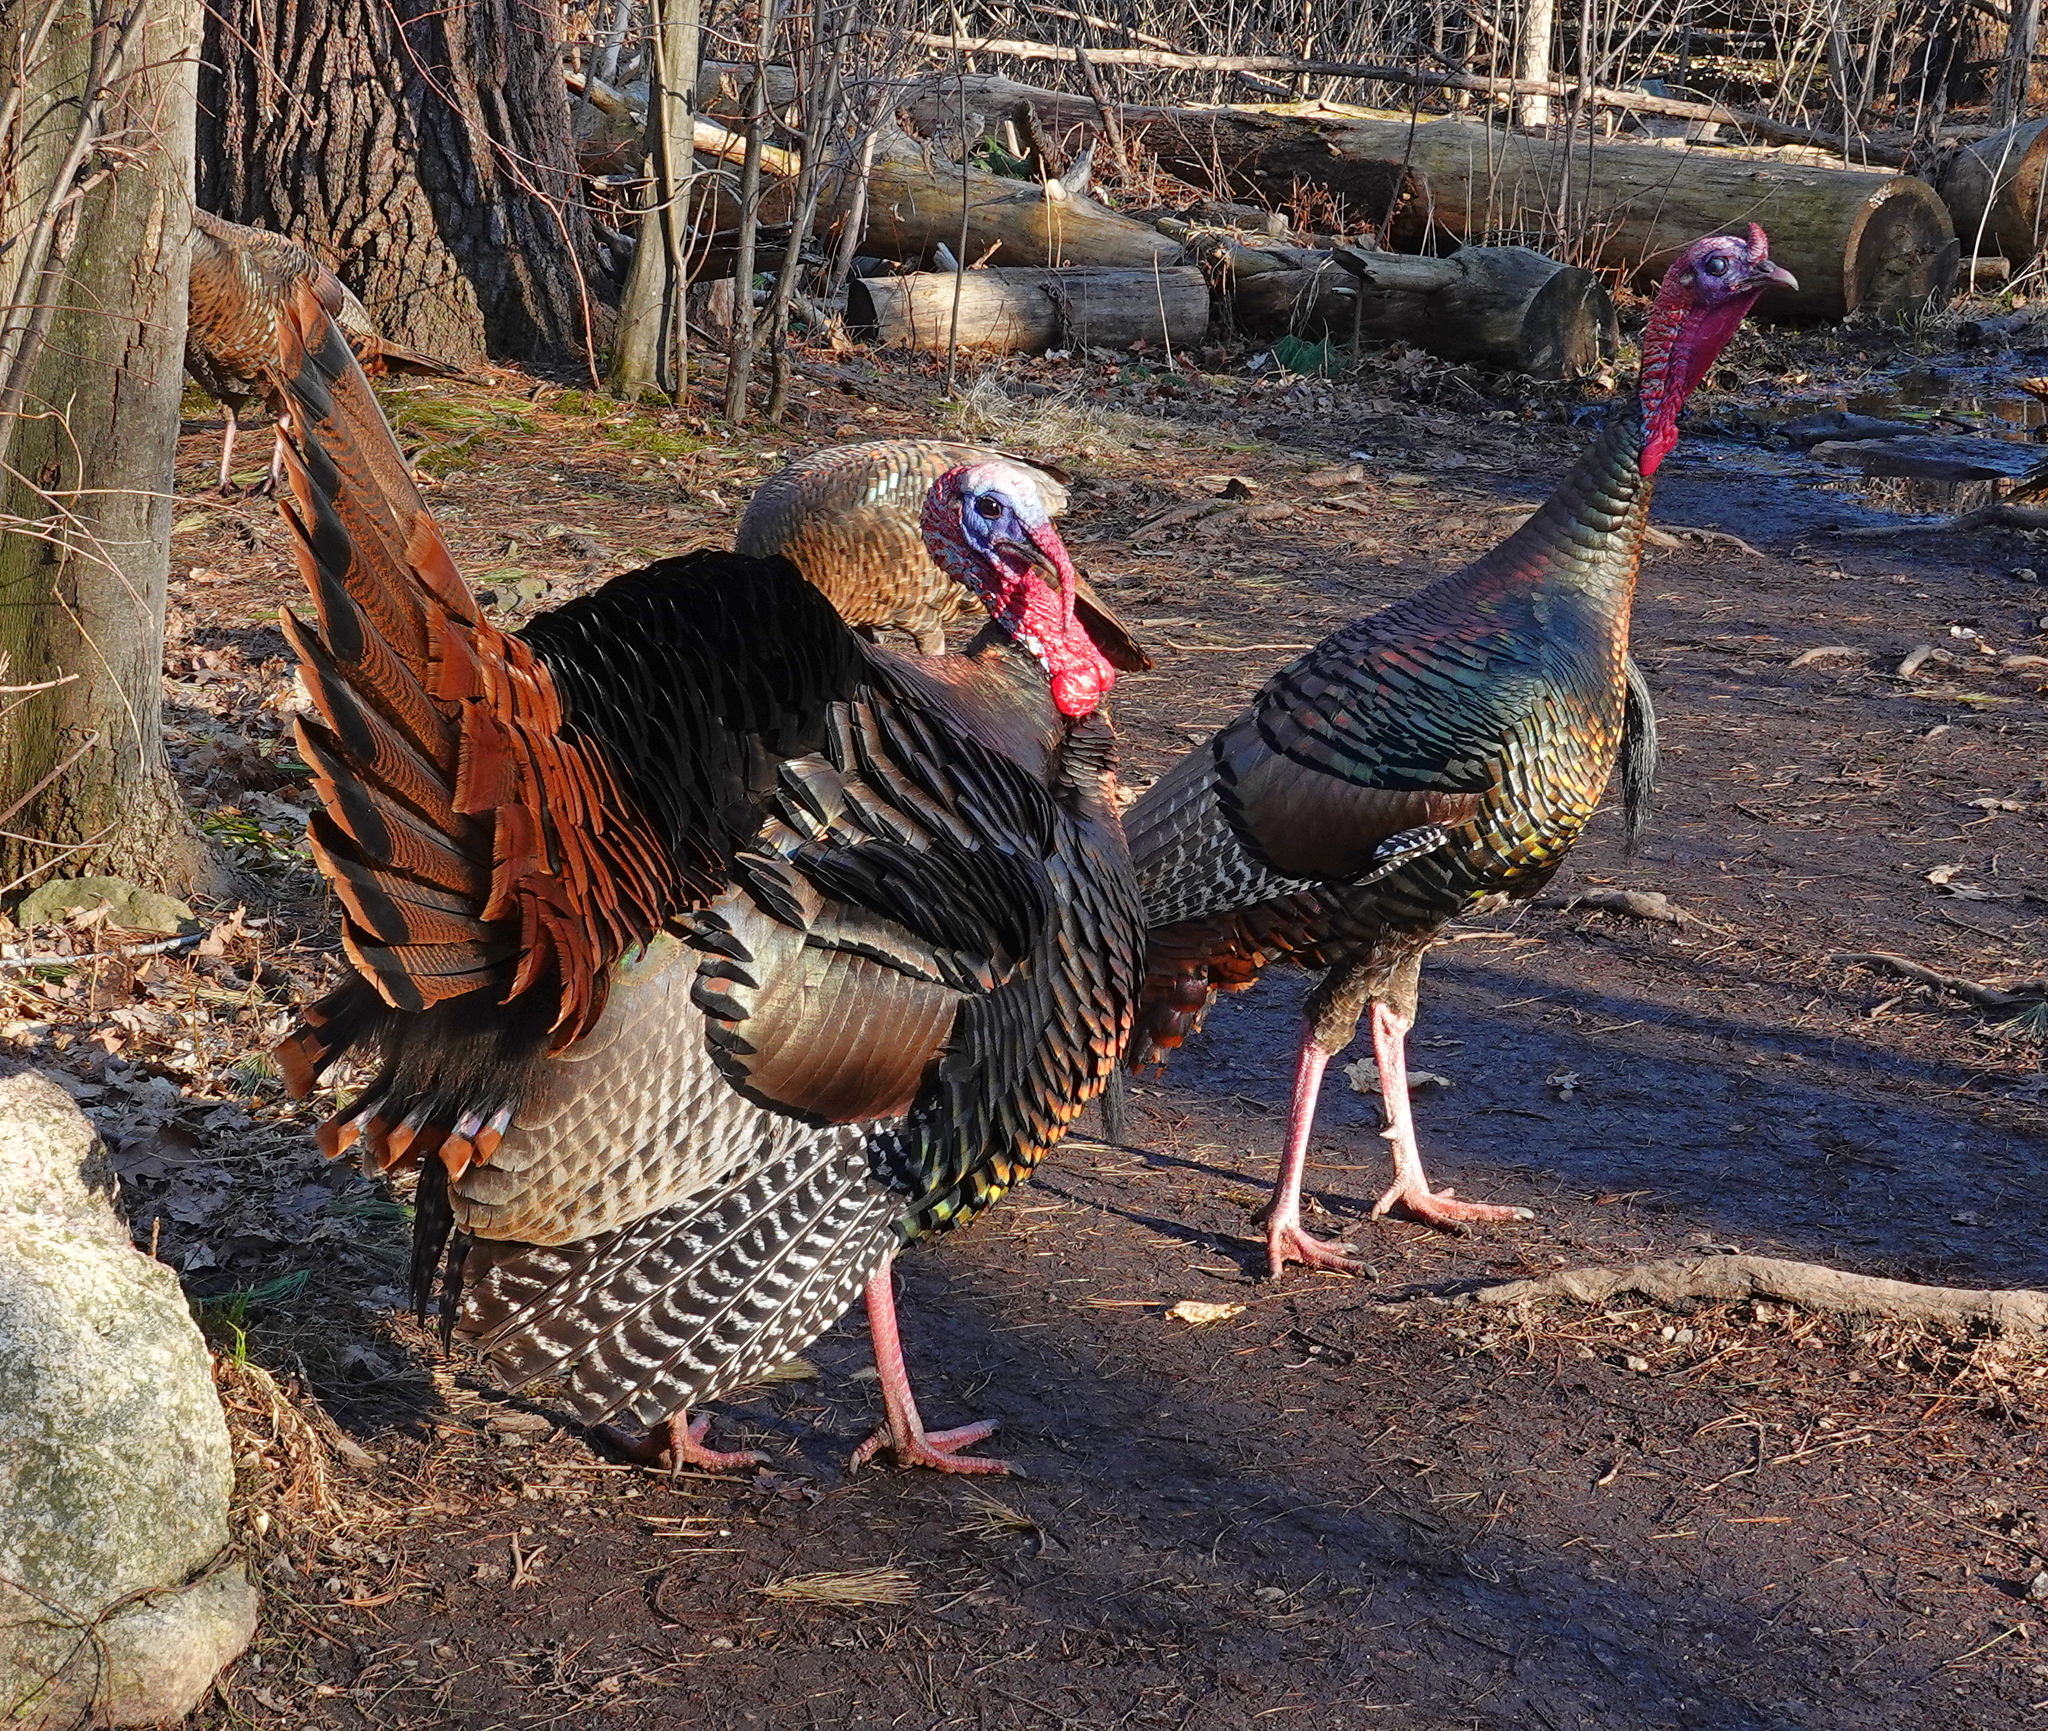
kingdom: Animalia
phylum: Chordata
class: Aves
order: Galliformes
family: Phasianidae
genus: Meleagris
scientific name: Meleagris gallopavo
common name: Wild turkey
